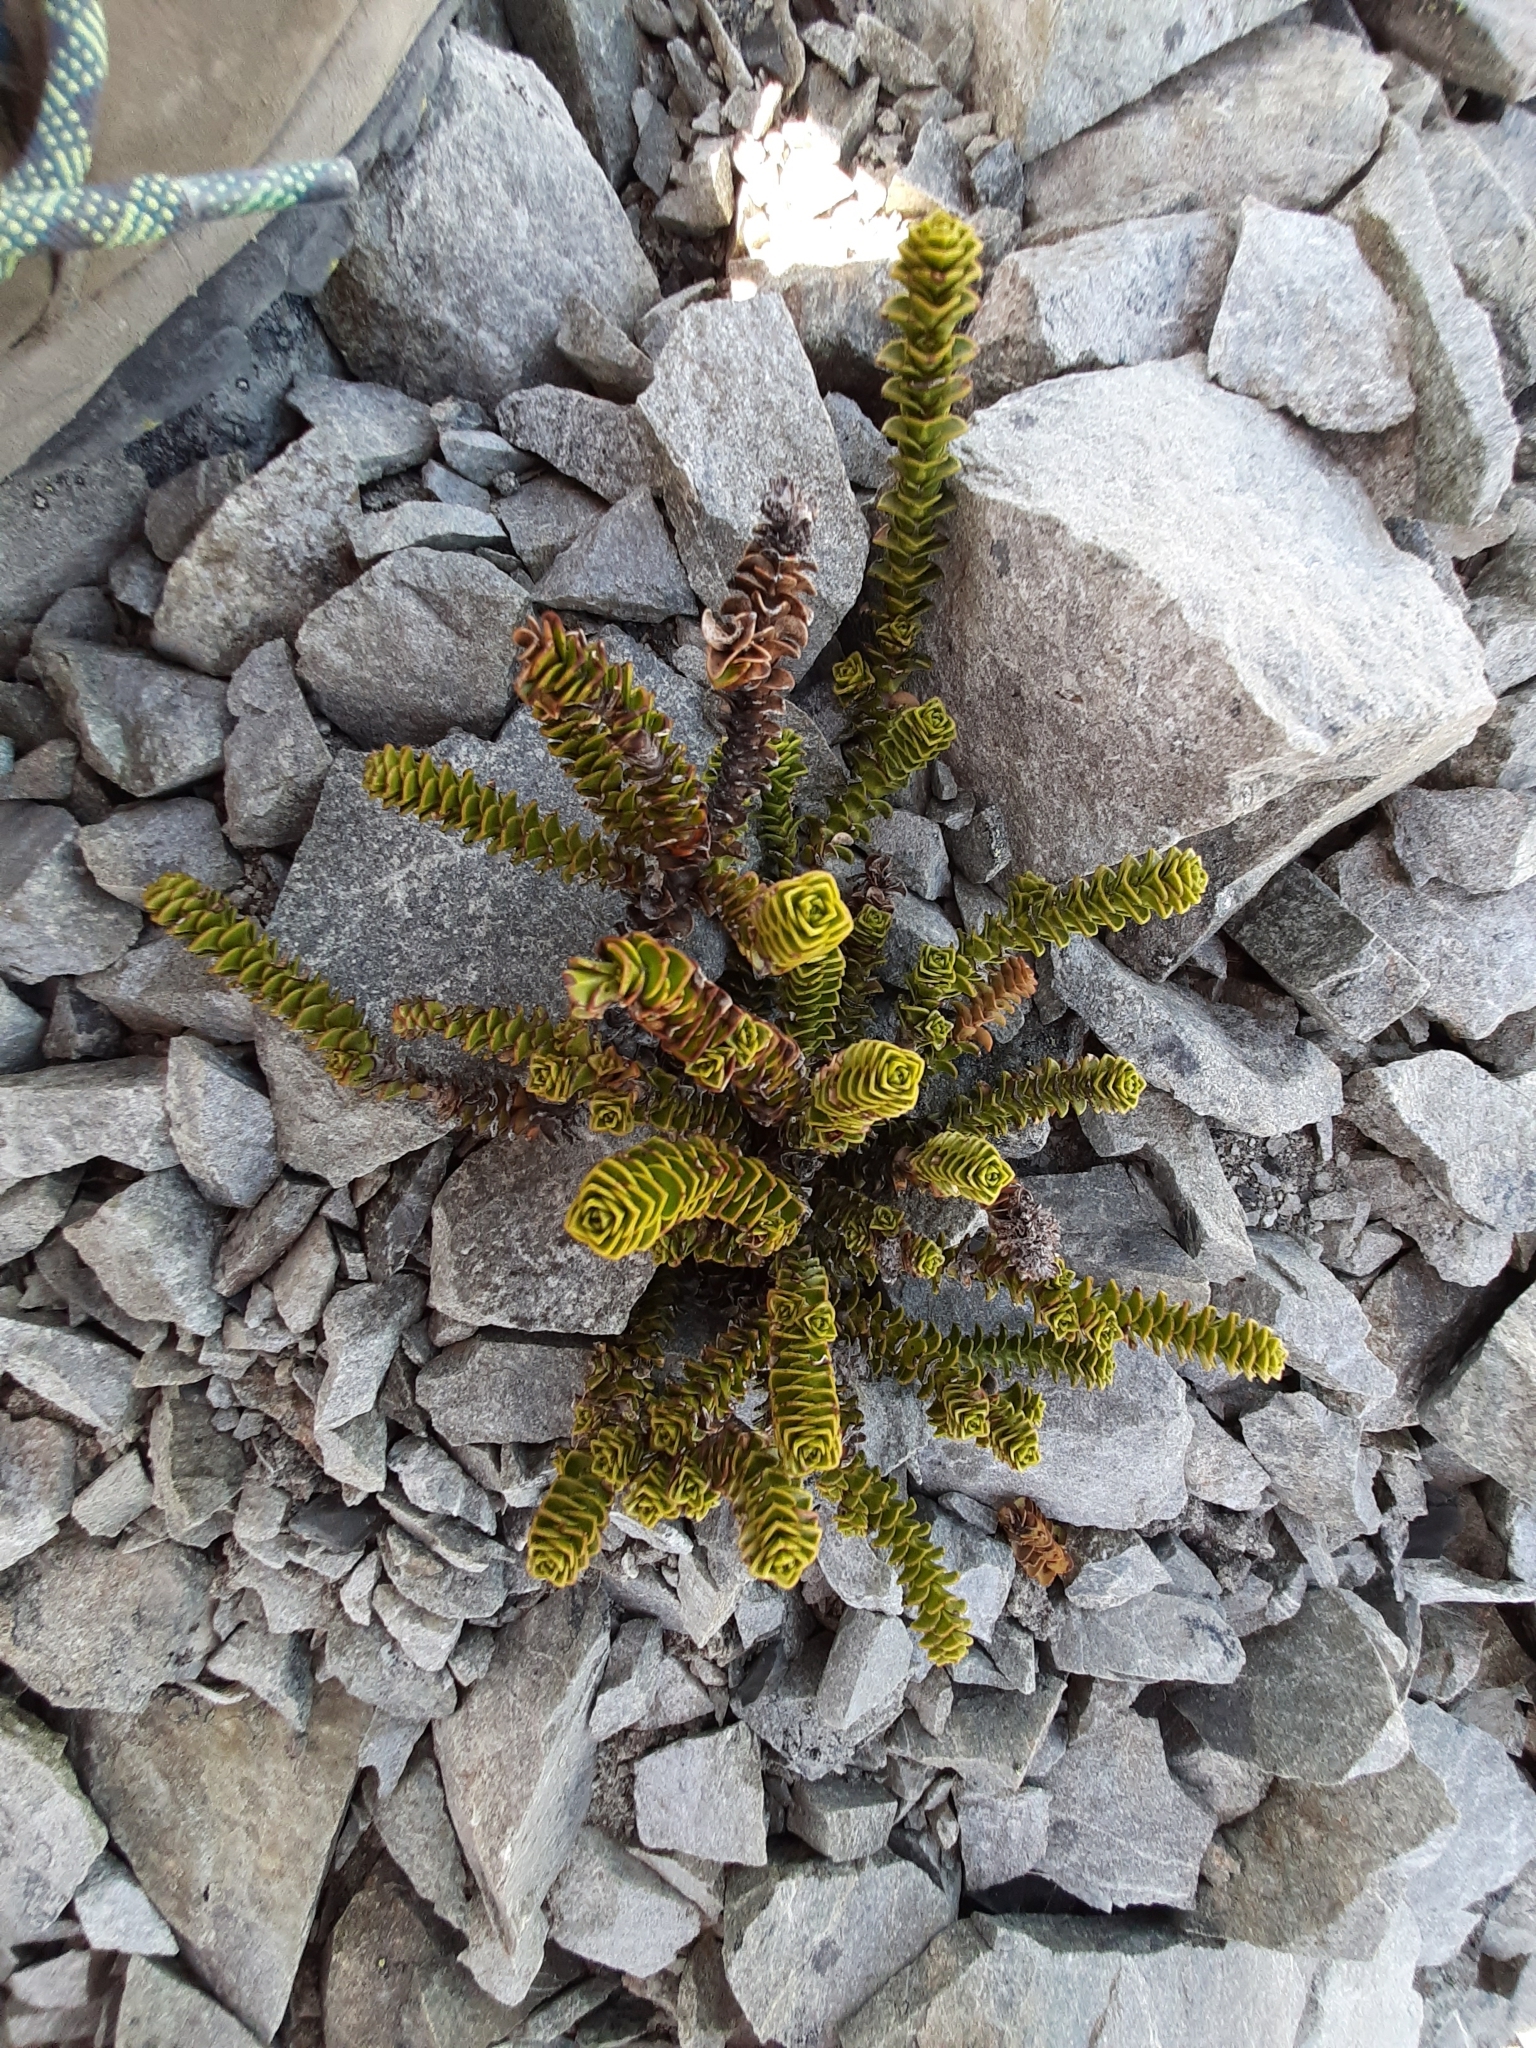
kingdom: Plantae
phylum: Tracheophyta
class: Magnoliopsida
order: Lamiales
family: Plantaginaceae
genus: Veronica
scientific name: Veronica epacridea
